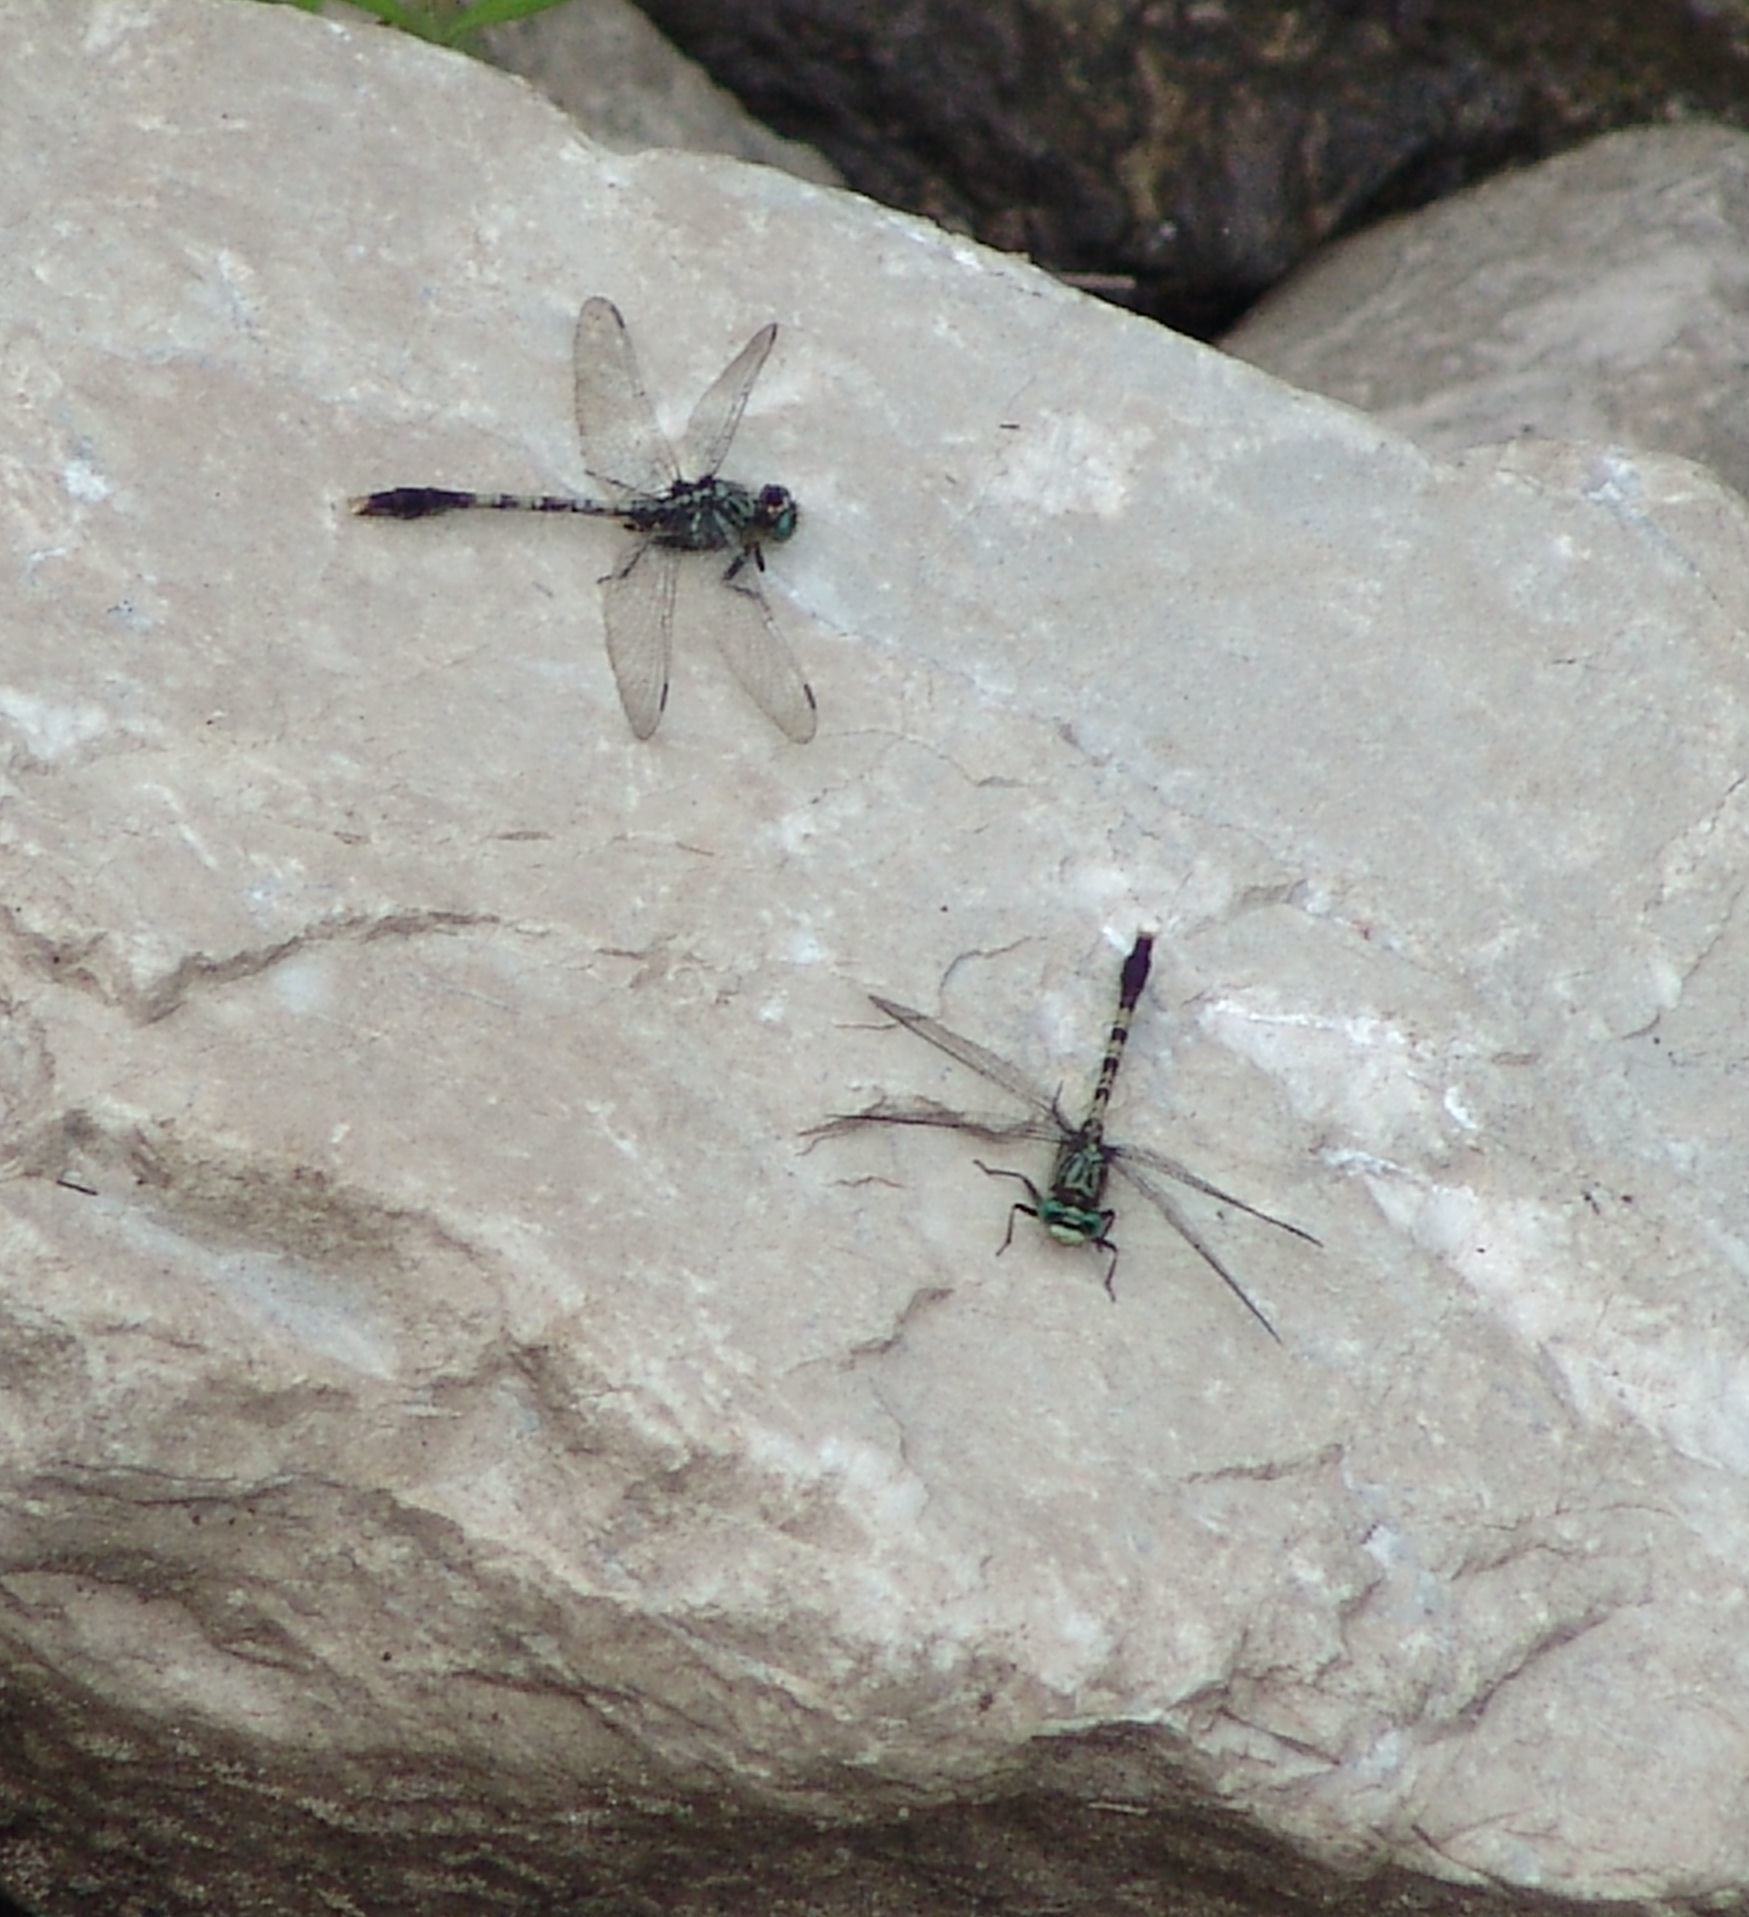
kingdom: Animalia
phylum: Arthropoda
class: Insecta
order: Odonata
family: Gomphidae
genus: Arigomphus
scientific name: Arigomphus maxwelli
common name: Bayou clubtail
